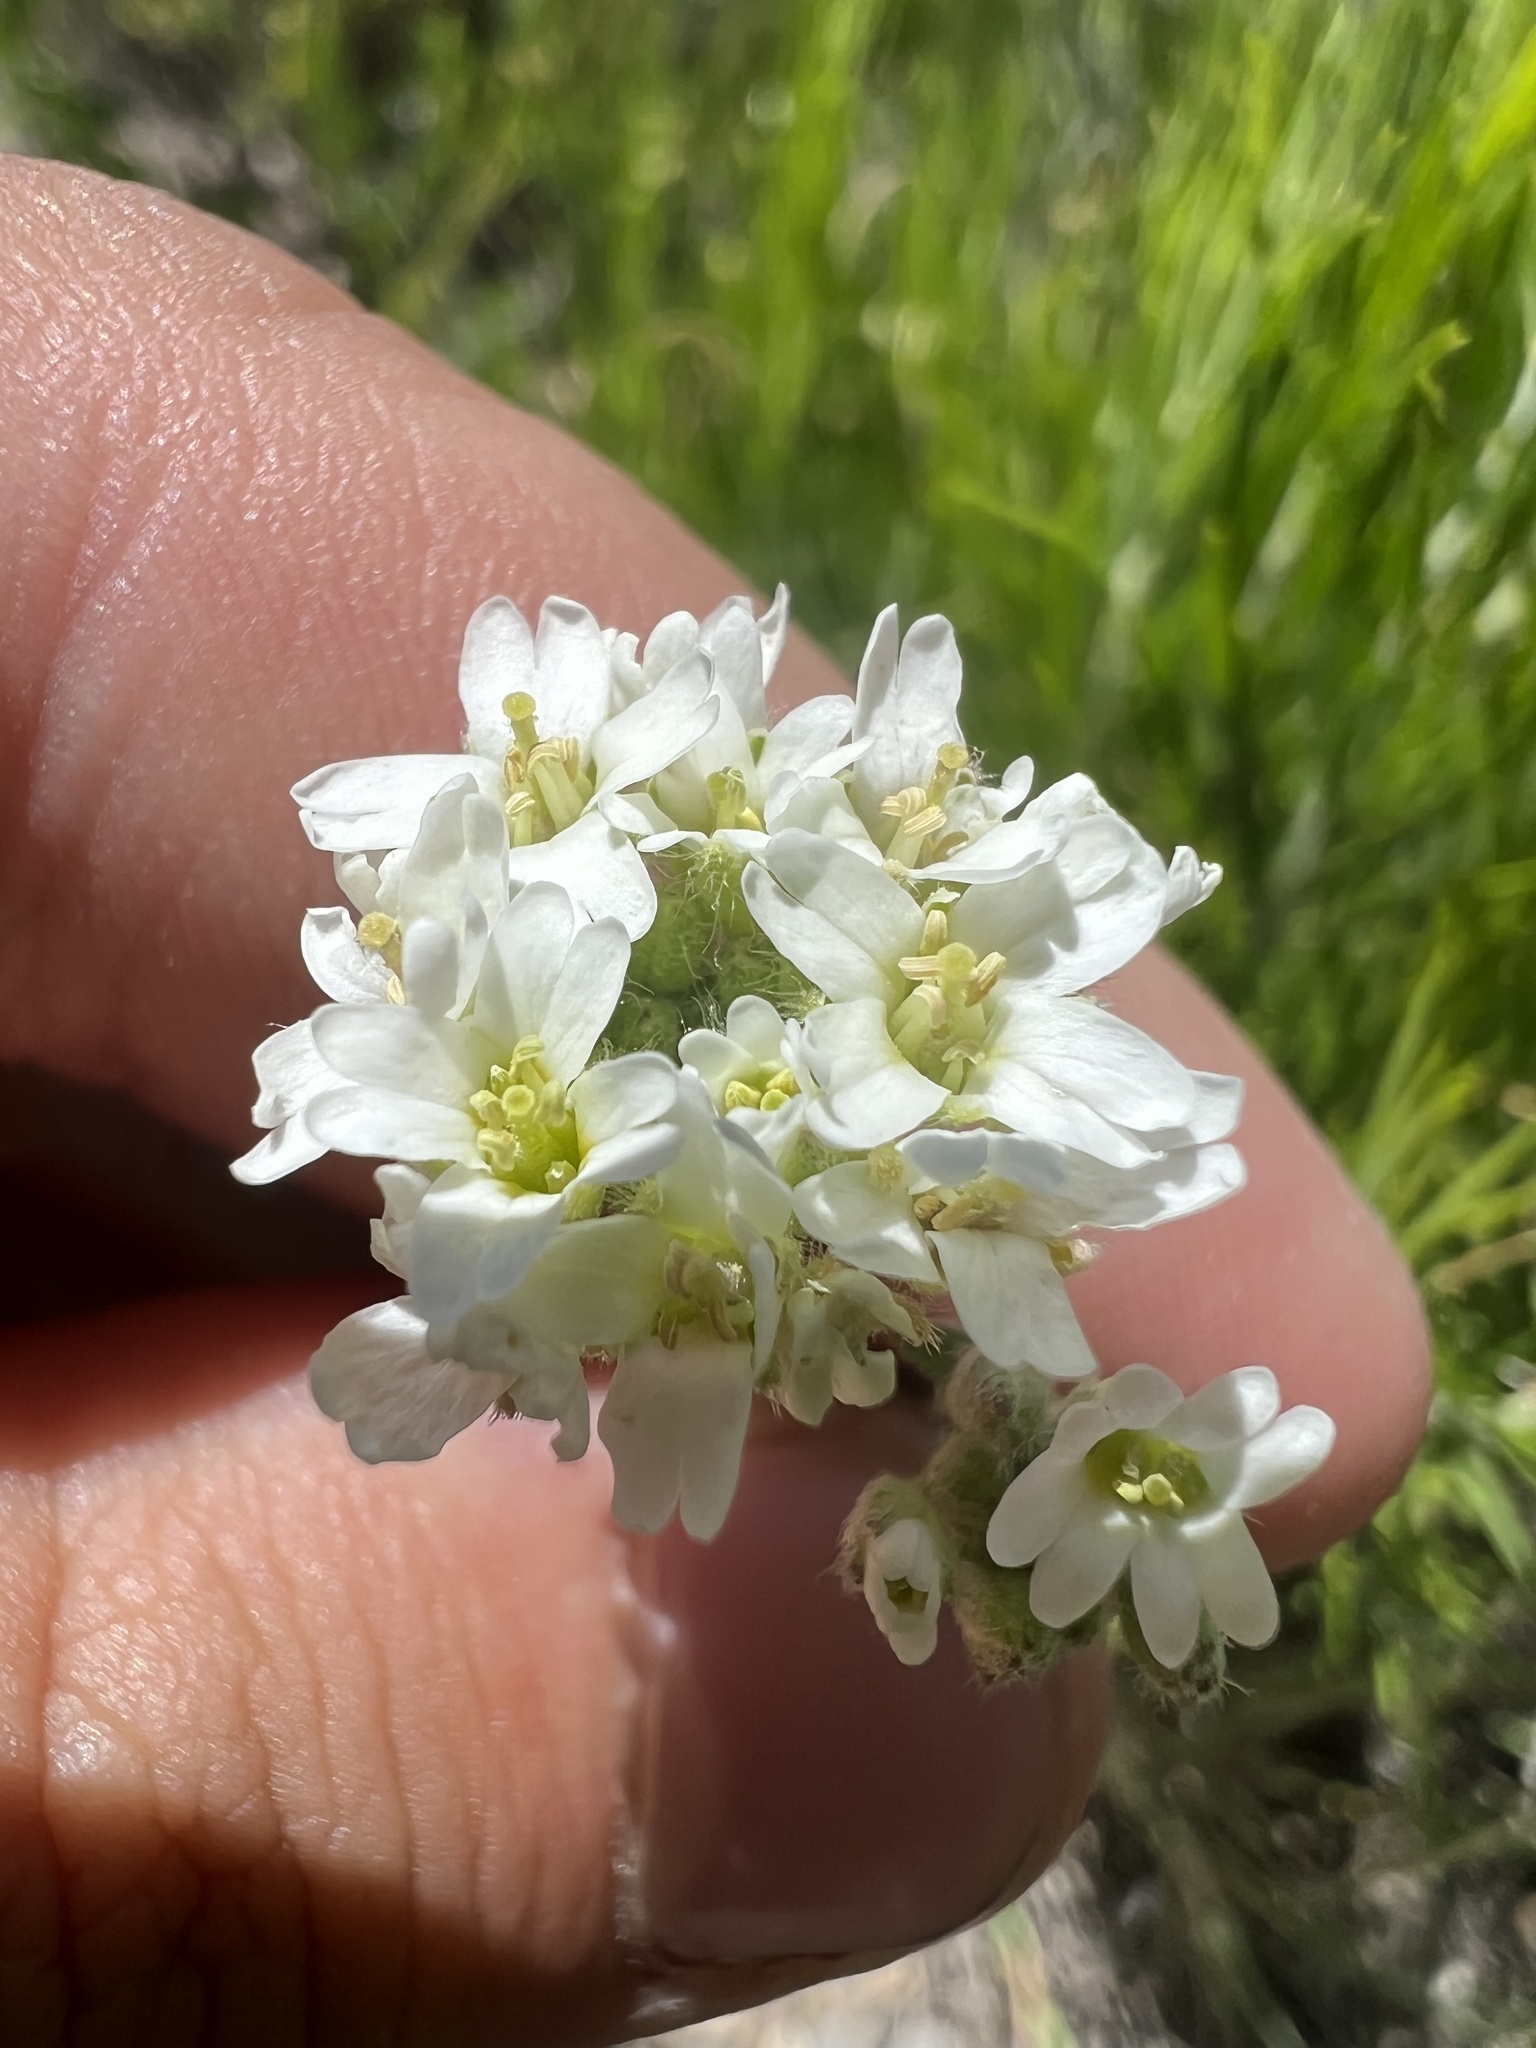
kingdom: Plantae
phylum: Tracheophyta
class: Magnoliopsida
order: Brassicales
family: Brassicaceae
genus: Berteroa
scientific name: Berteroa incana
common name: Hoary alison
